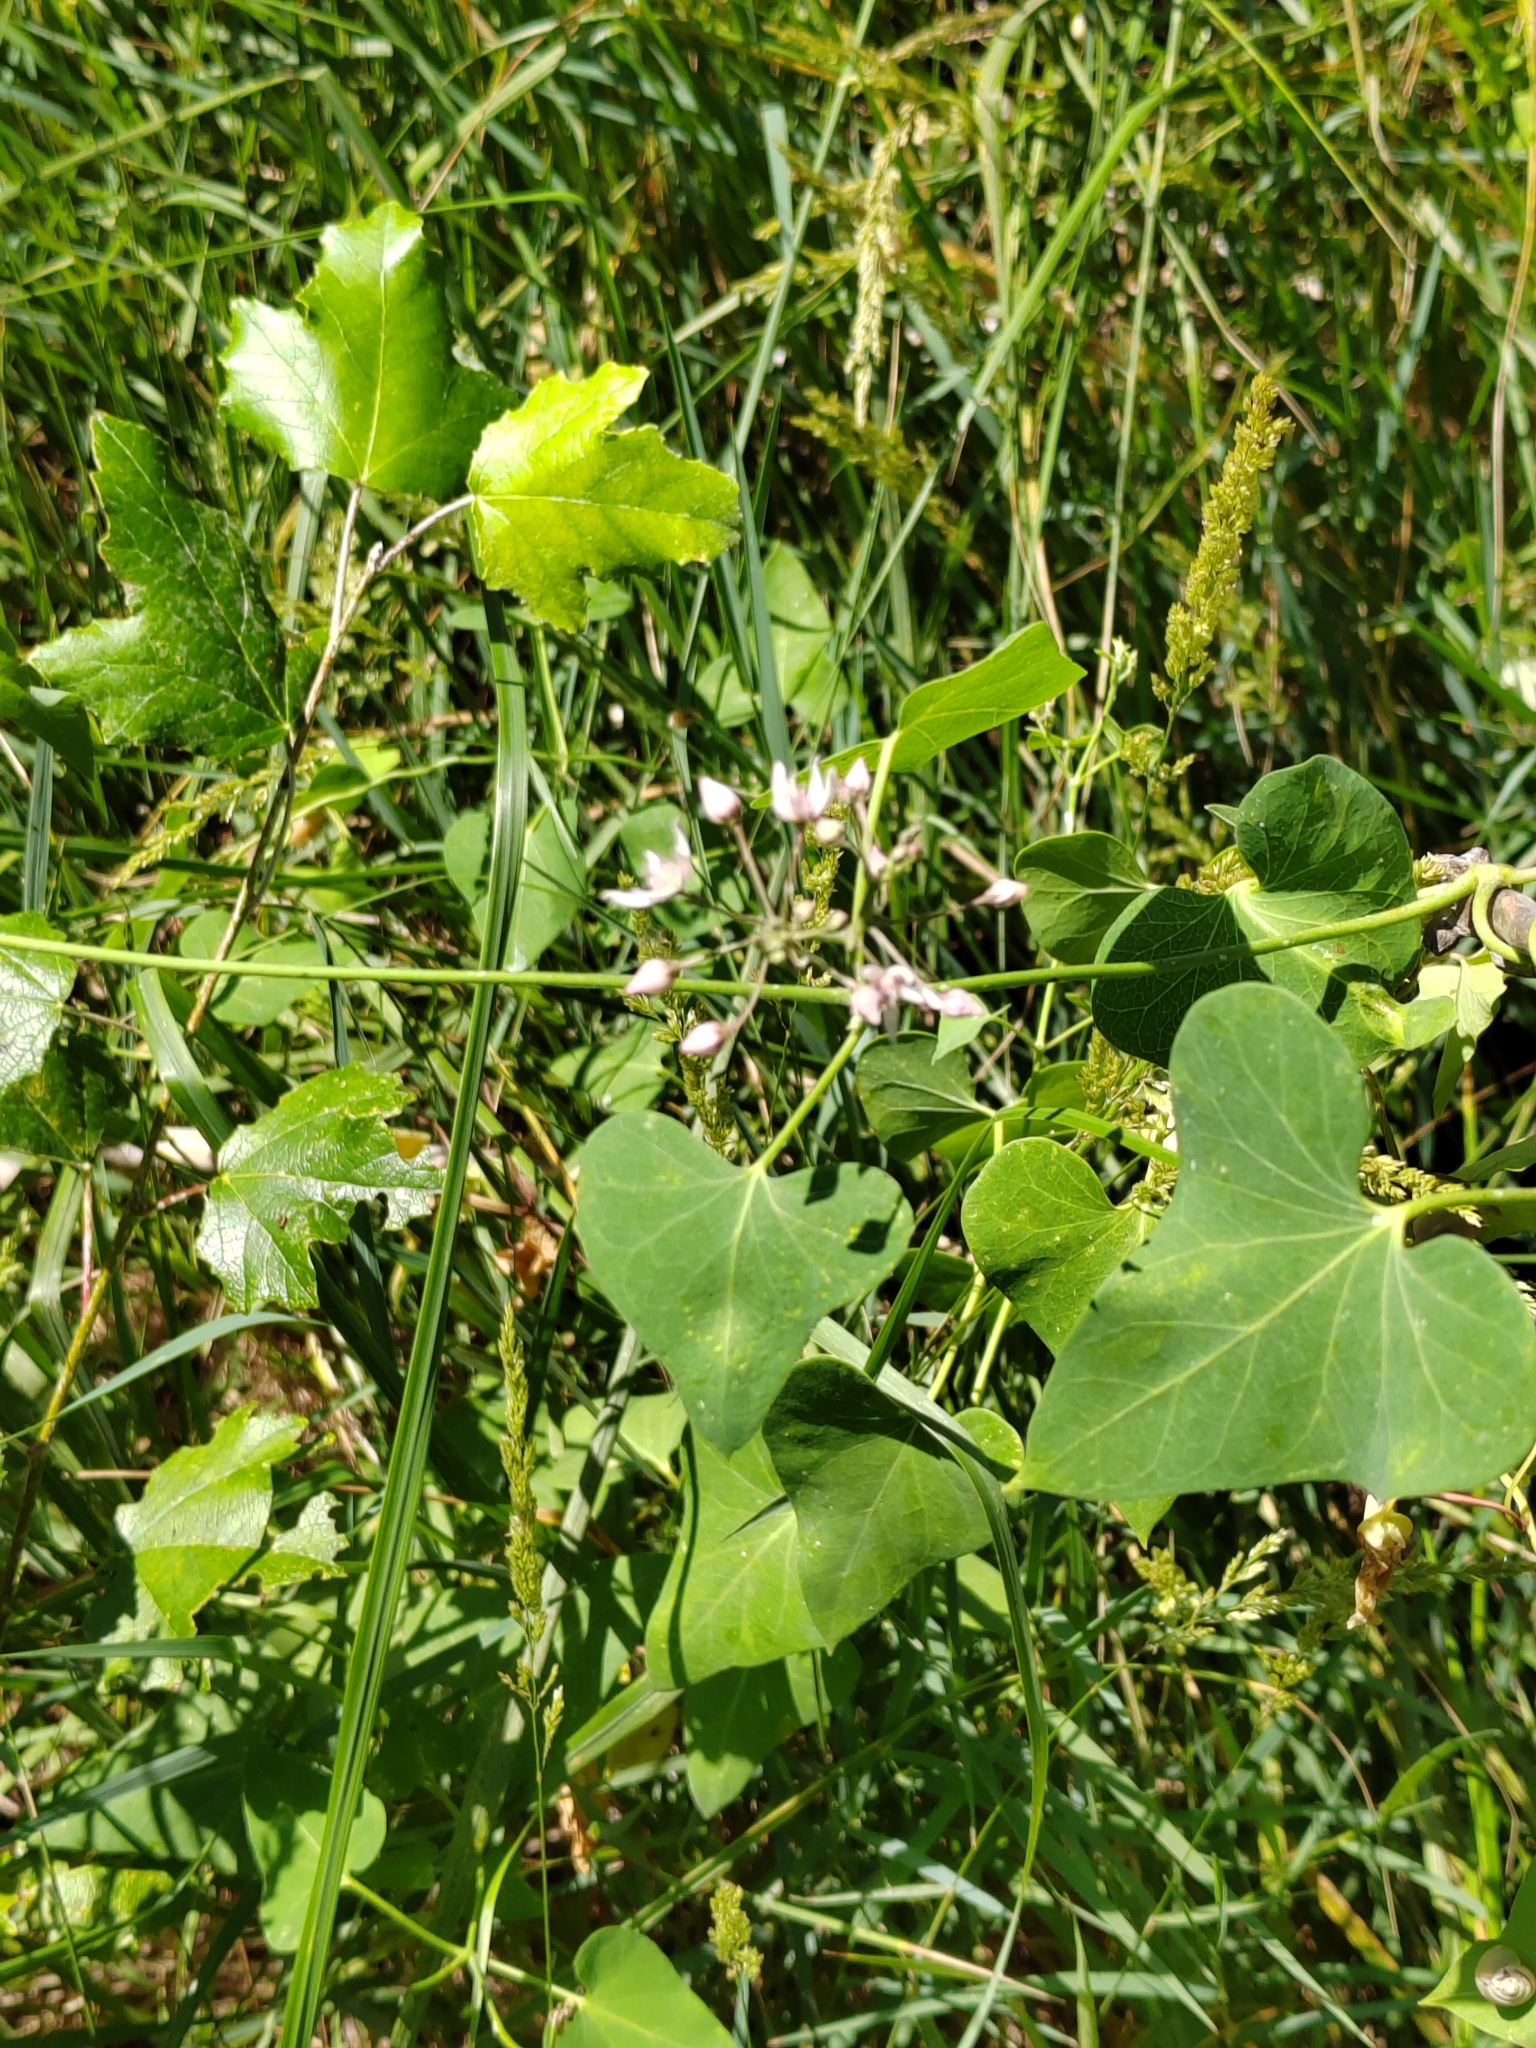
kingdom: Plantae
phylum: Tracheophyta
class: Magnoliopsida
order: Gentianales
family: Apocynaceae
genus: Cynanchum
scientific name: Cynanchum acutum
